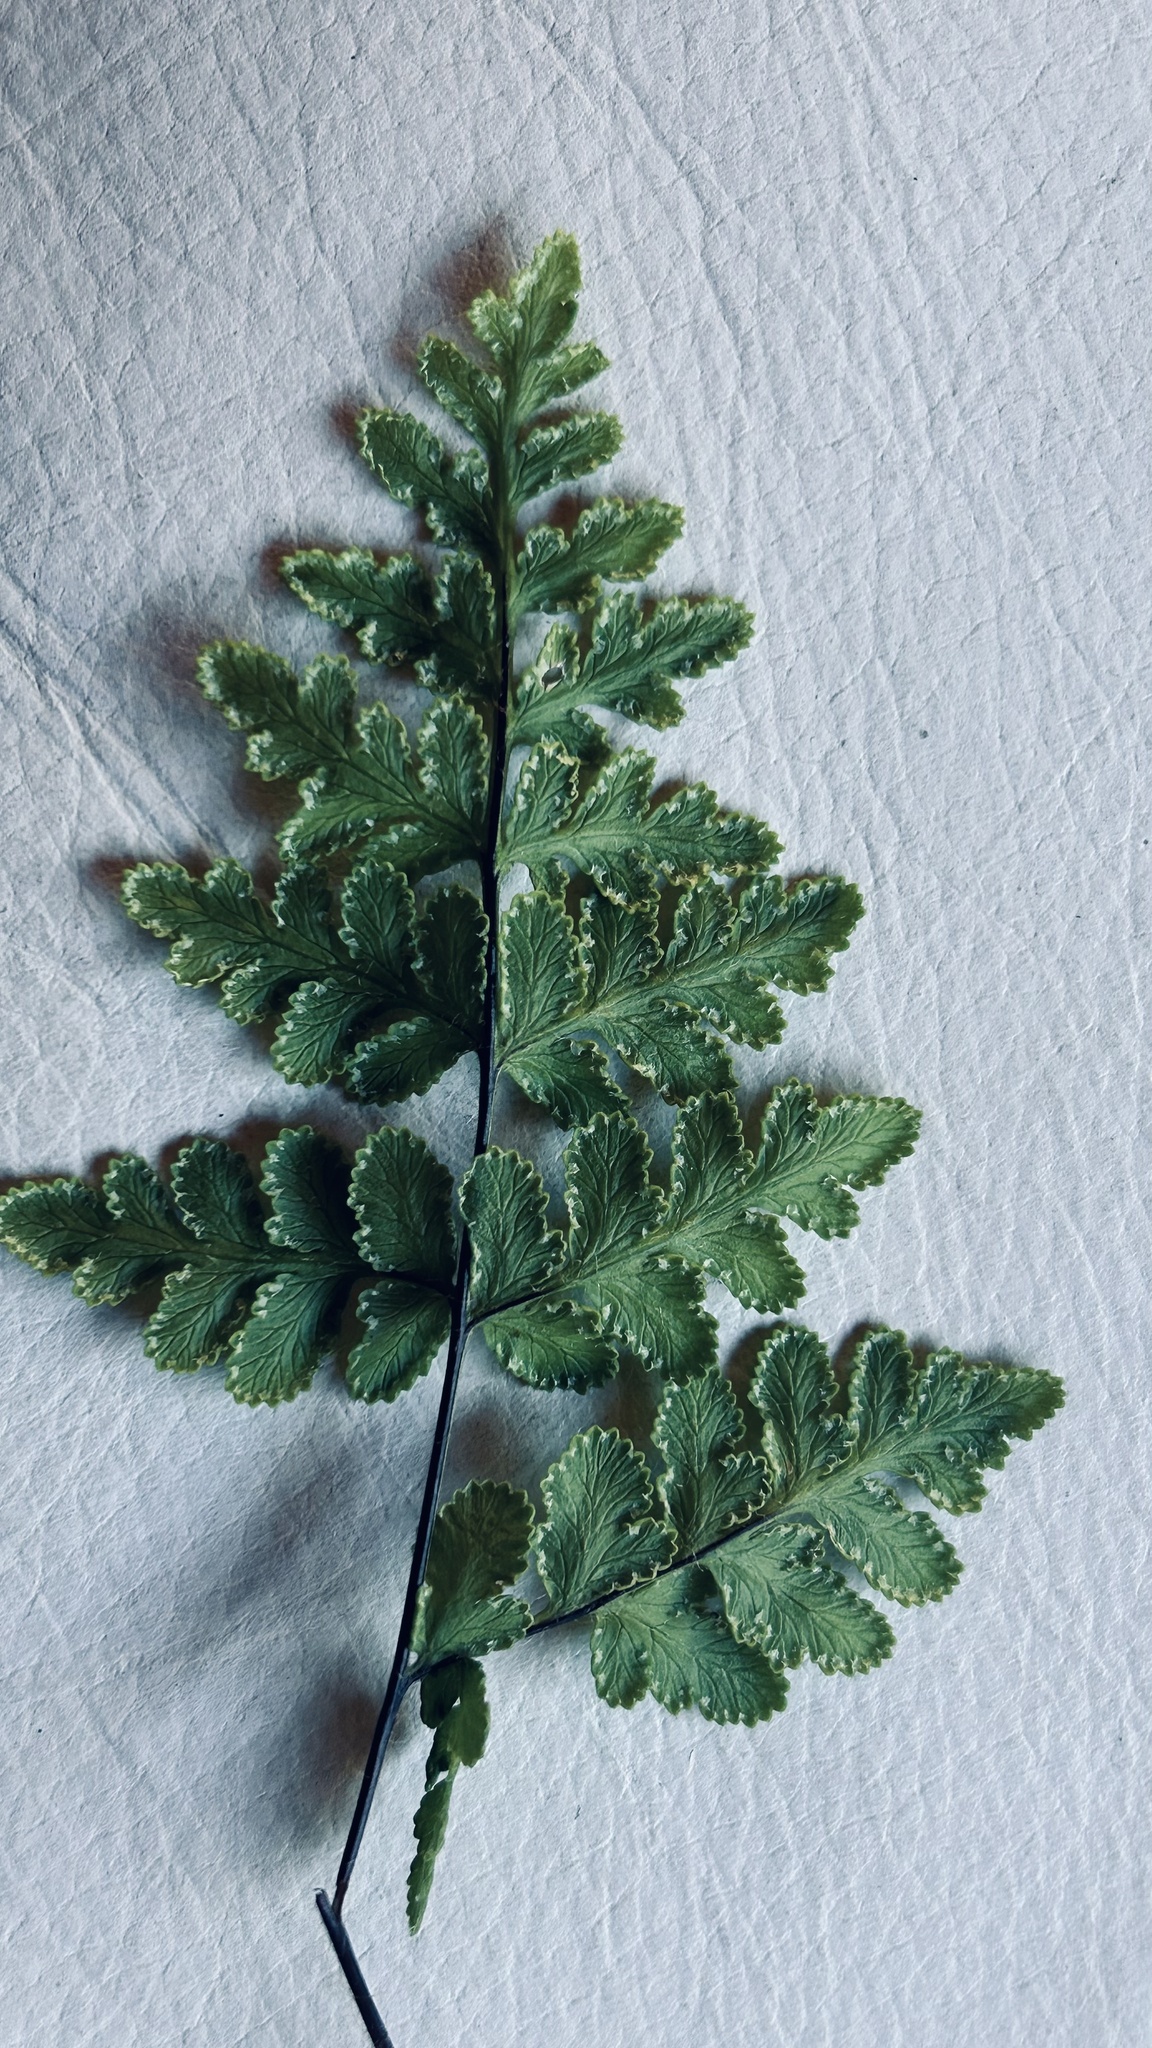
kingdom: Plantae
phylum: Tracheophyta
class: Polypodiopsida
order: Polypodiales
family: Pteridaceae
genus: Cheilanthes
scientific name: Cheilanthes capensis
